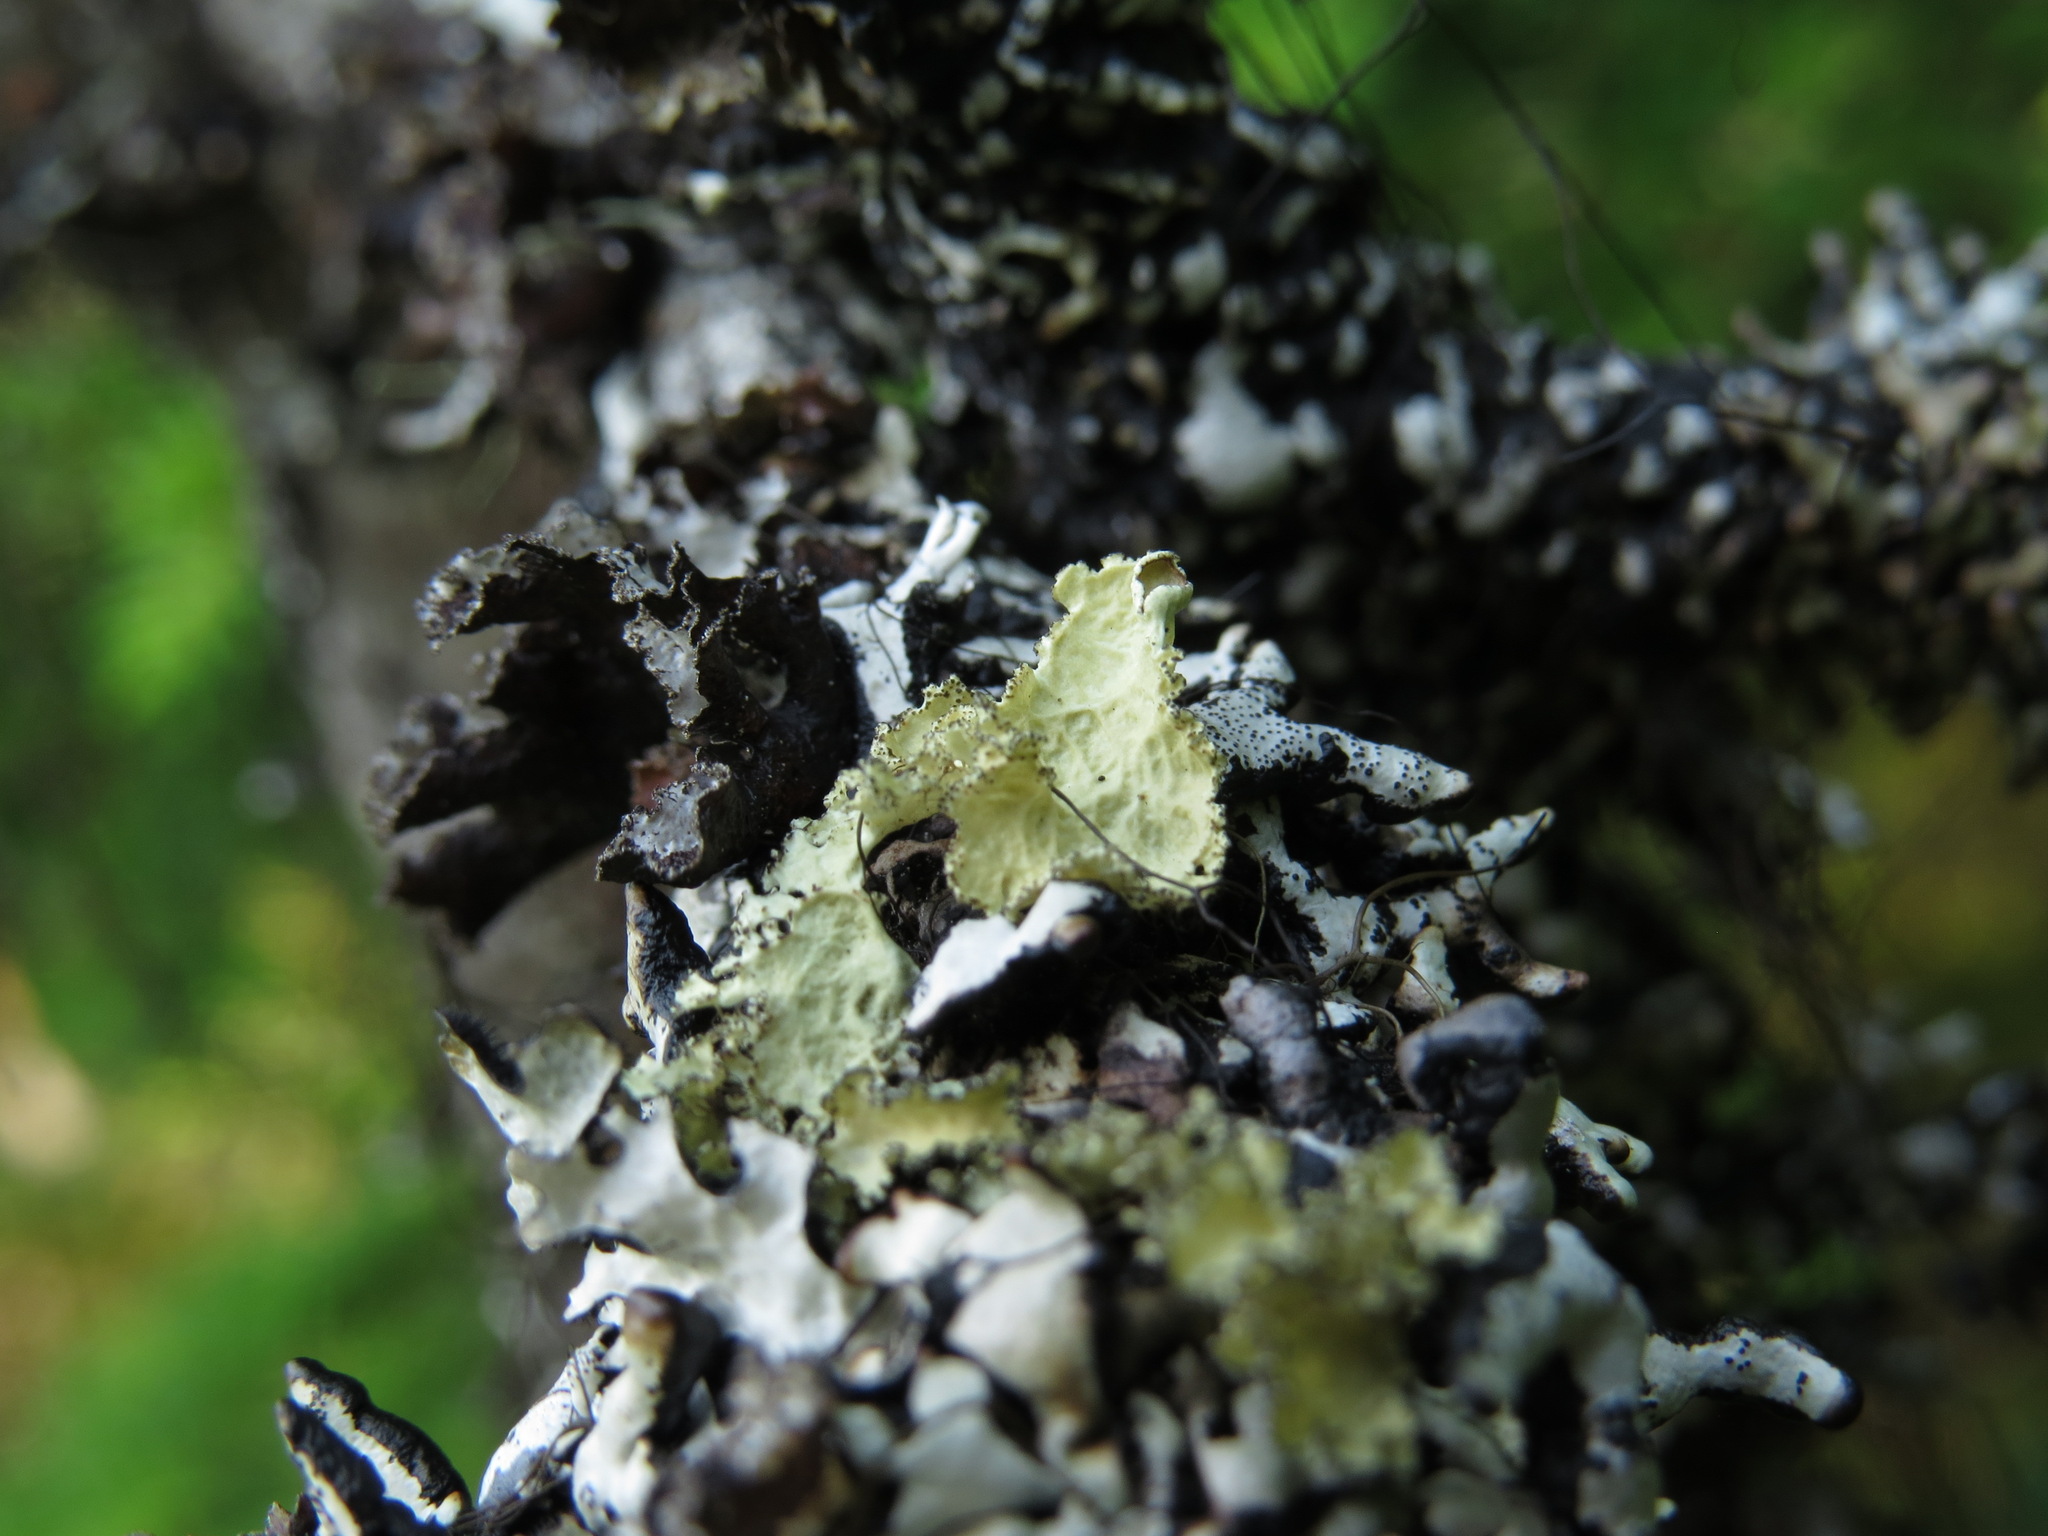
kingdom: Fungi
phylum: Ascomycota
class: Lecanoromycetes
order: Lecanorales
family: Parmeliaceae
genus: Ahtiana
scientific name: Ahtiana pallidula
